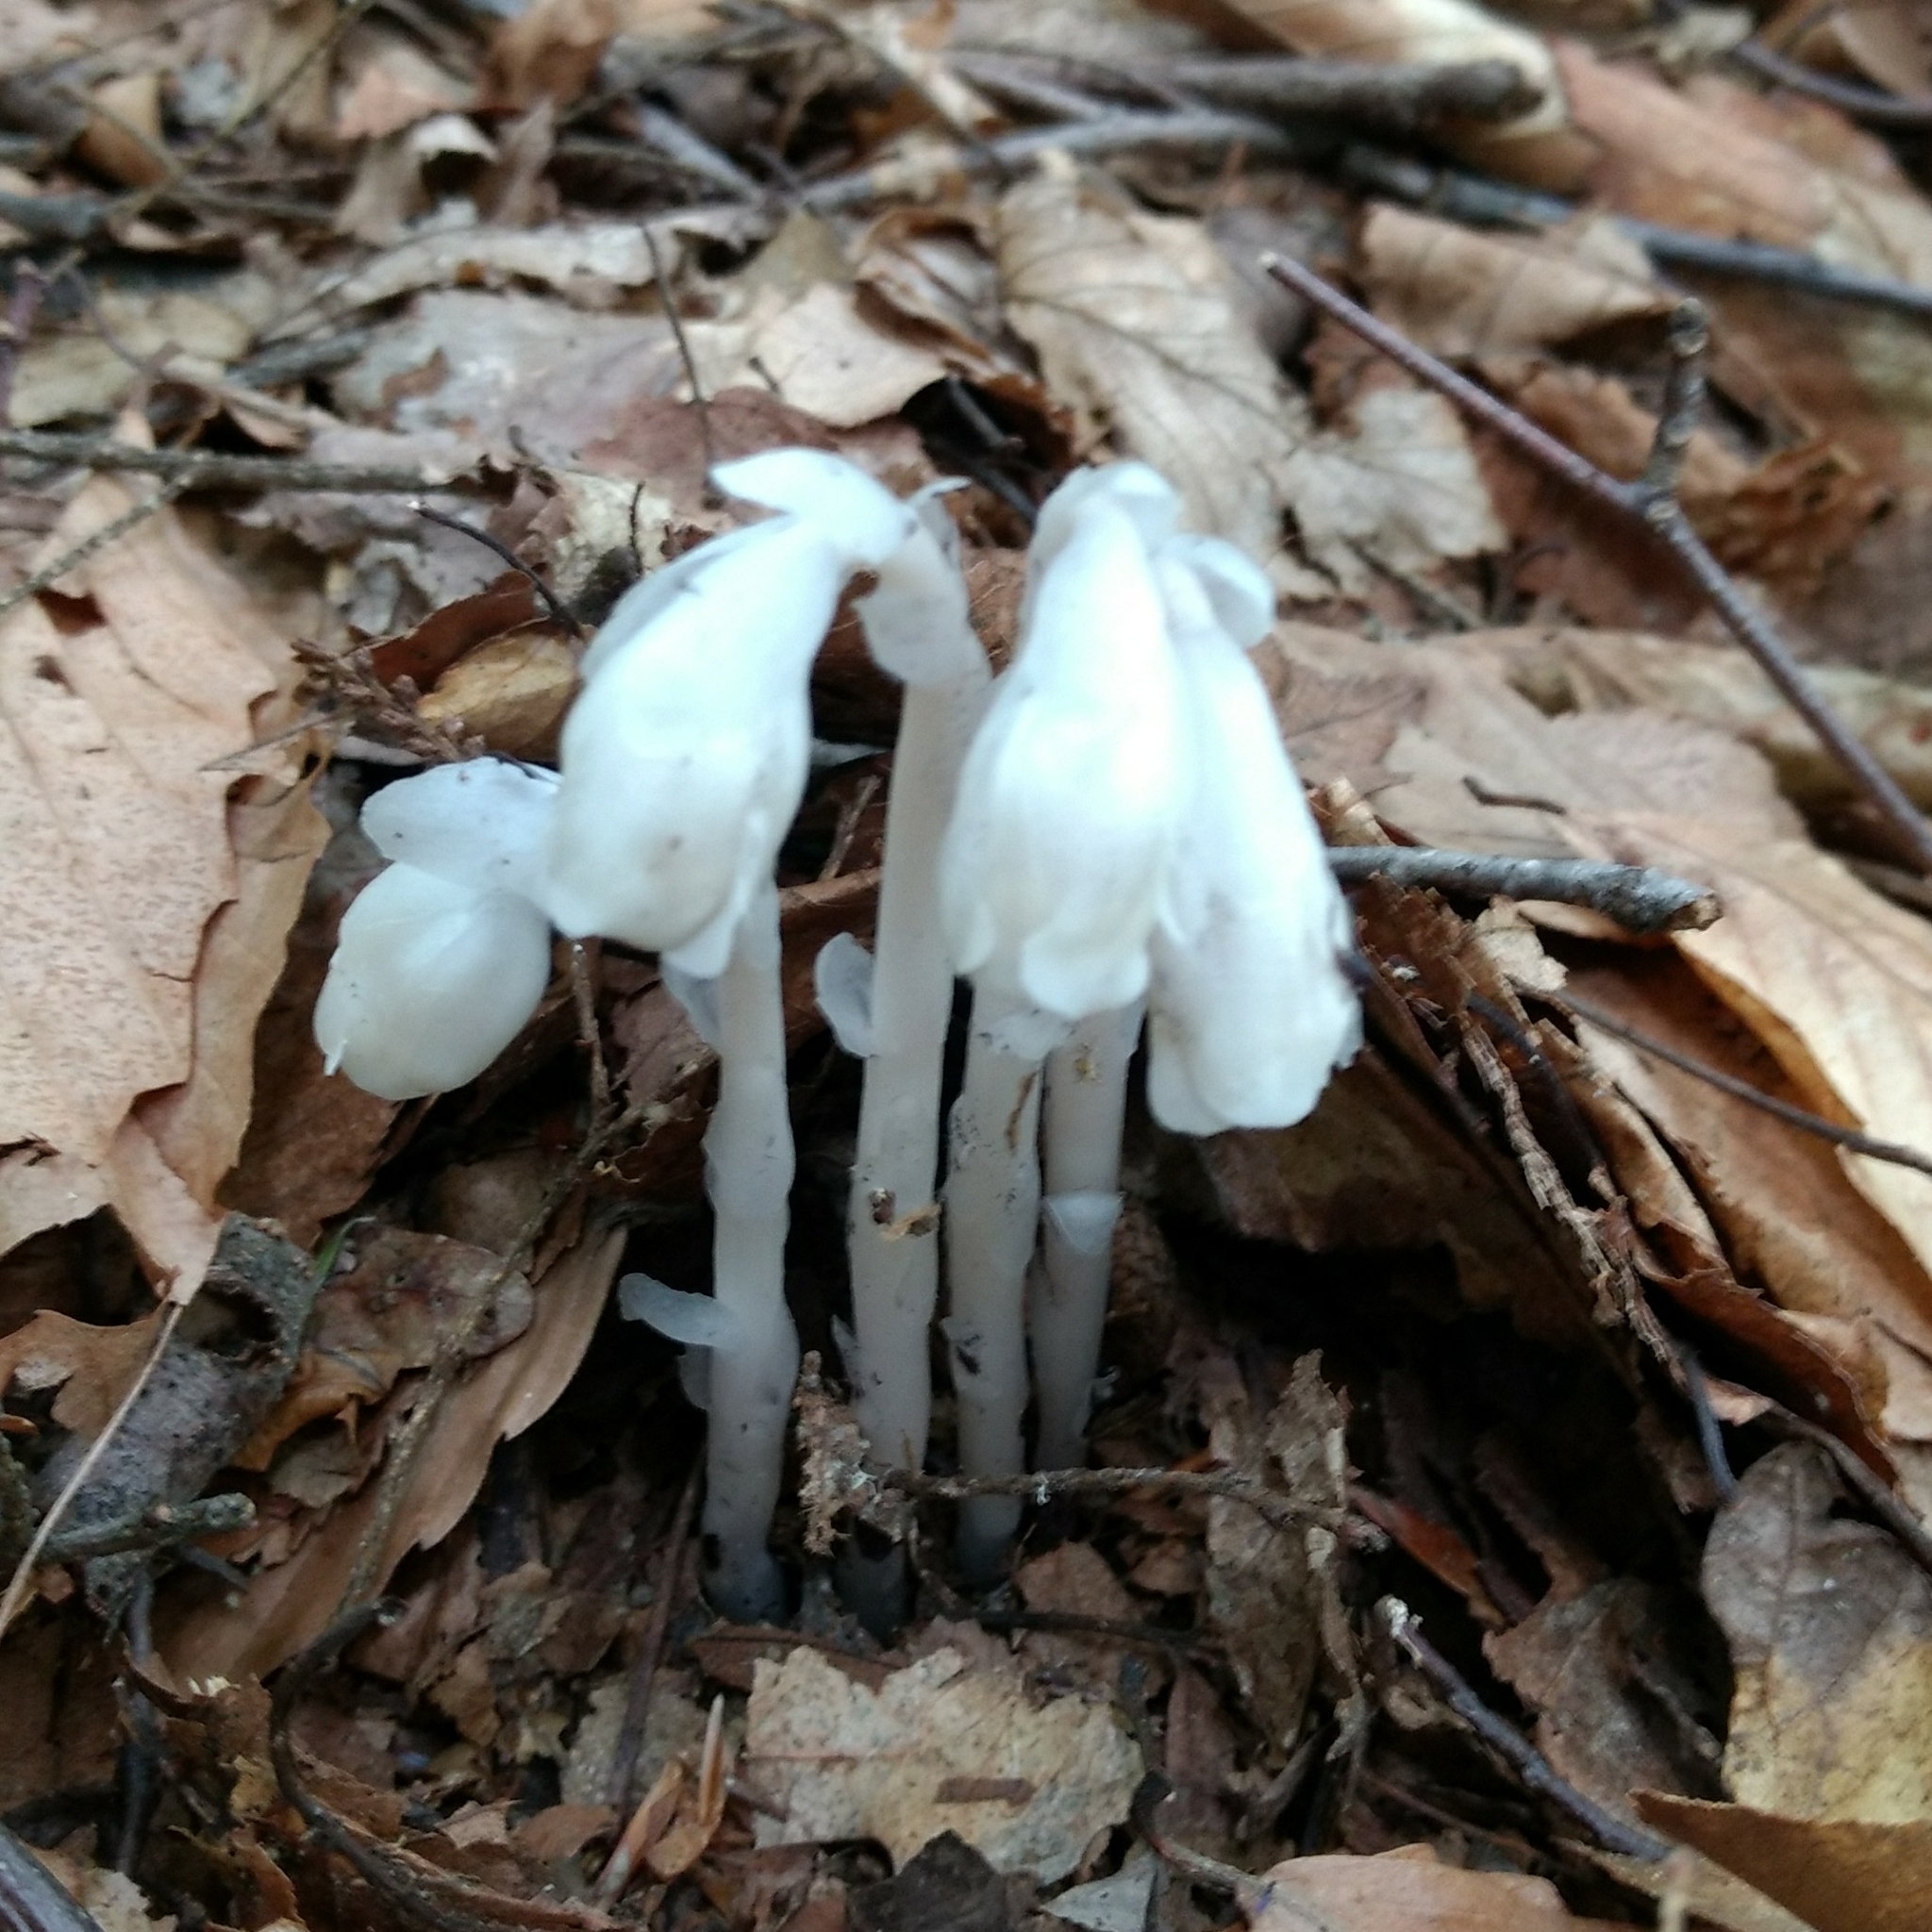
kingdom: Plantae
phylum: Tracheophyta
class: Magnoliopsida
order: Ericales
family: Ericaceae
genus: Monotropa
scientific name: Monotropa uniflora
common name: Convulsion root
